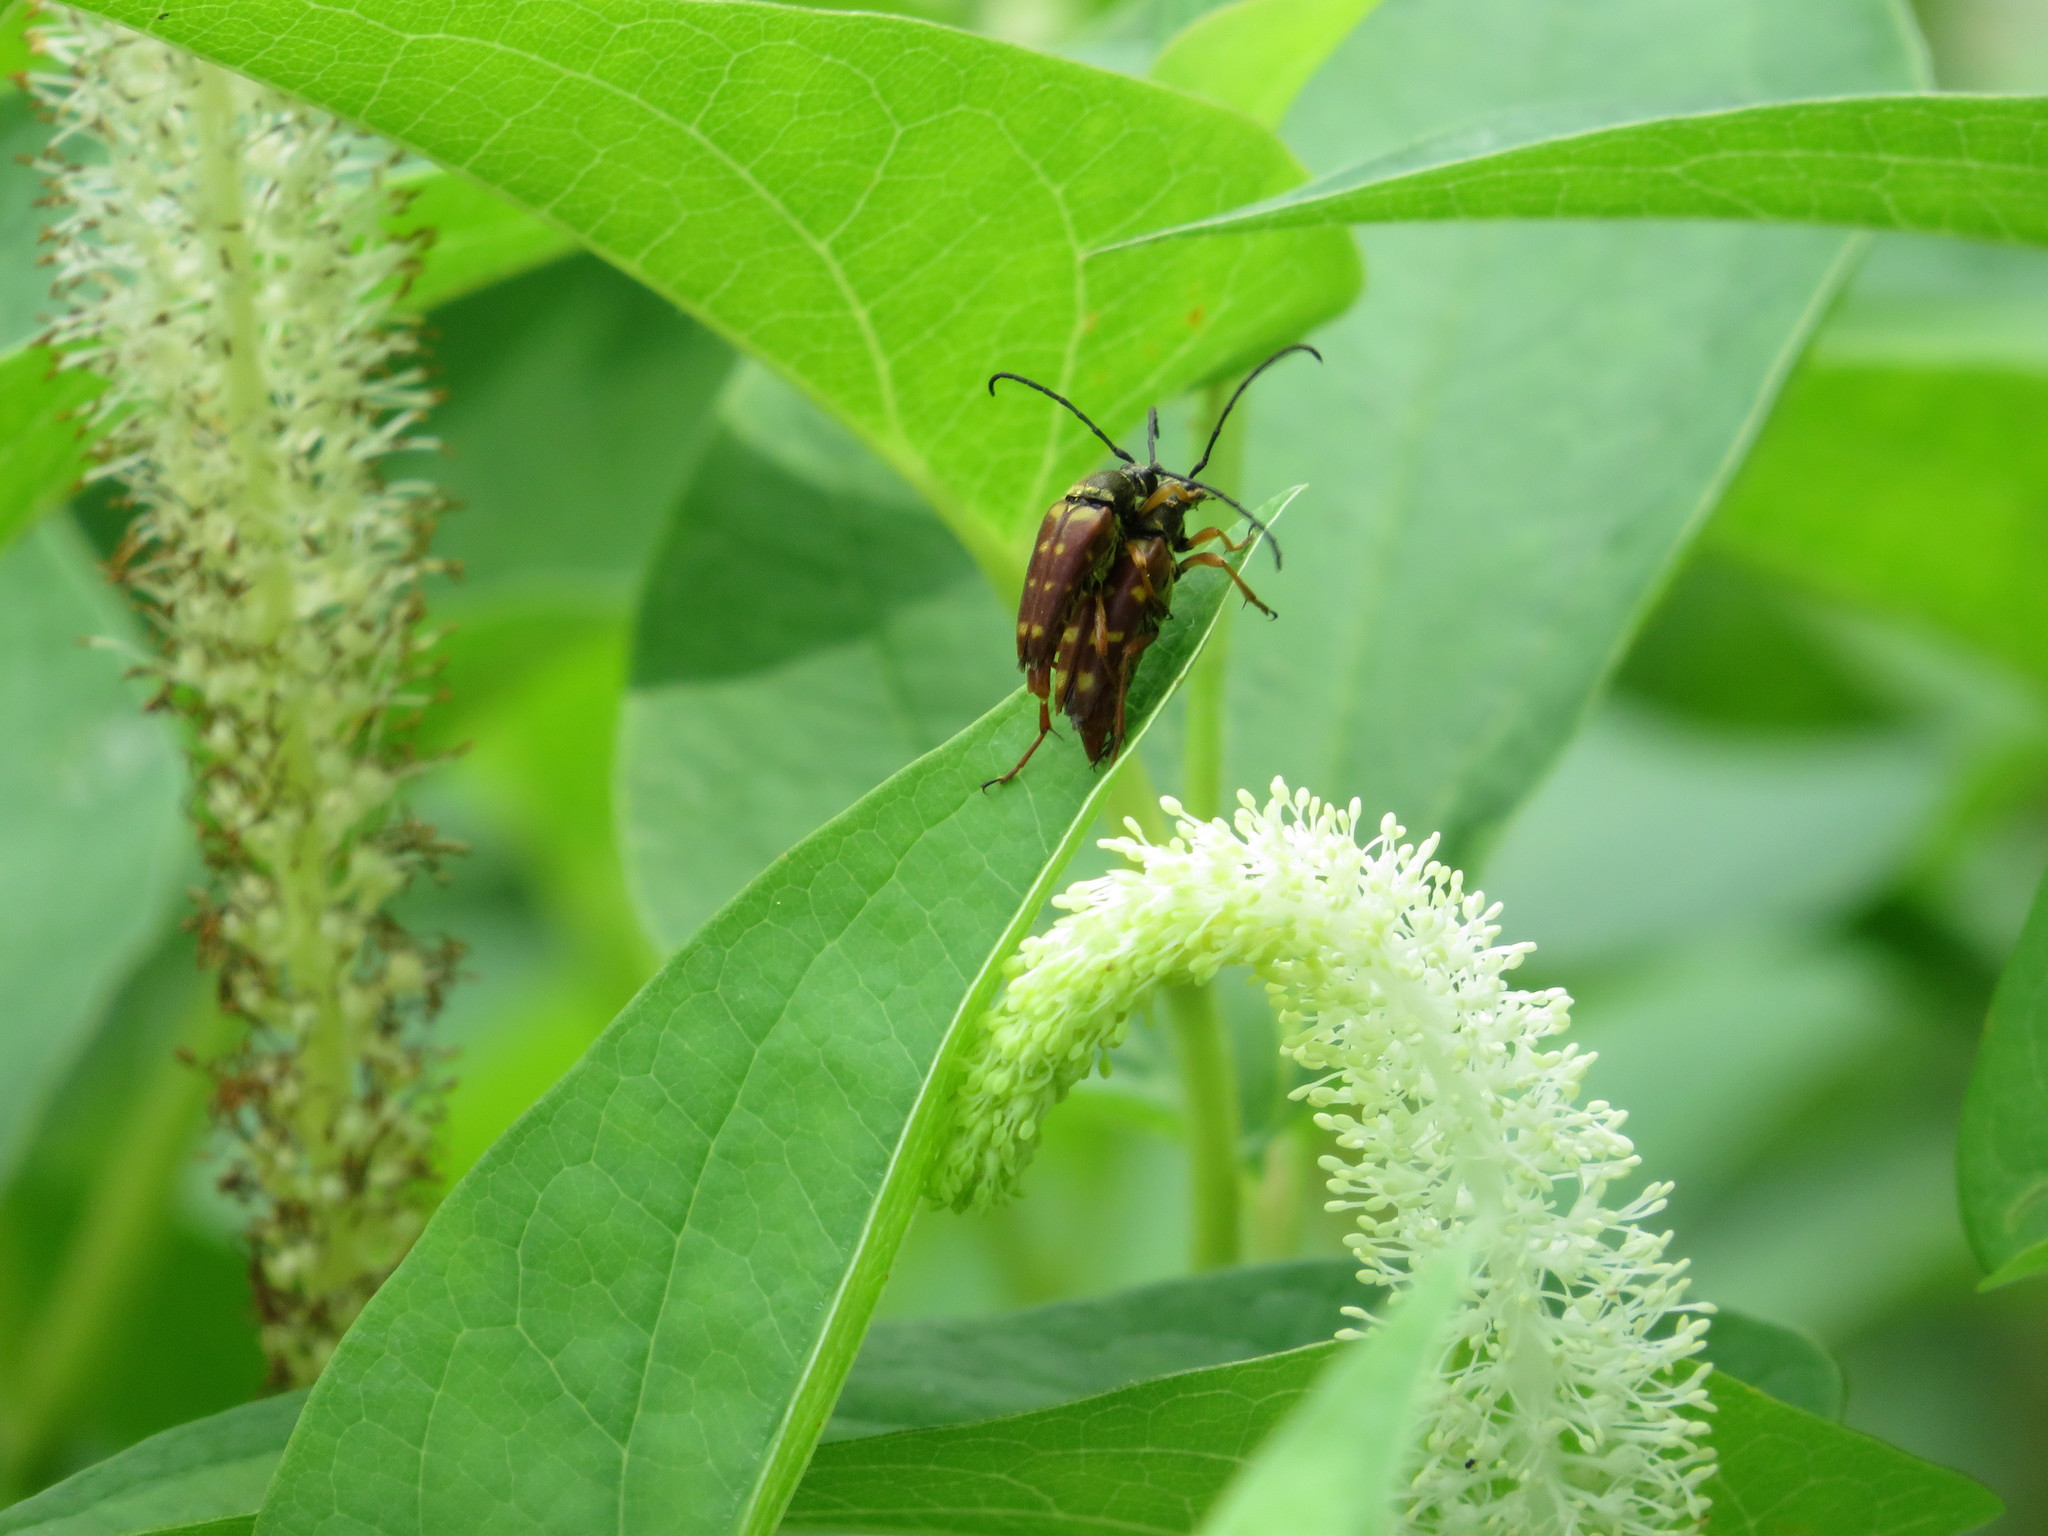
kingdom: Animalia
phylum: Arthropoda
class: Insecta
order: Coleoptera
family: Cerambycidae
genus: Typocerus
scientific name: Typocerus velutinus
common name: Banded longhorn beetle
